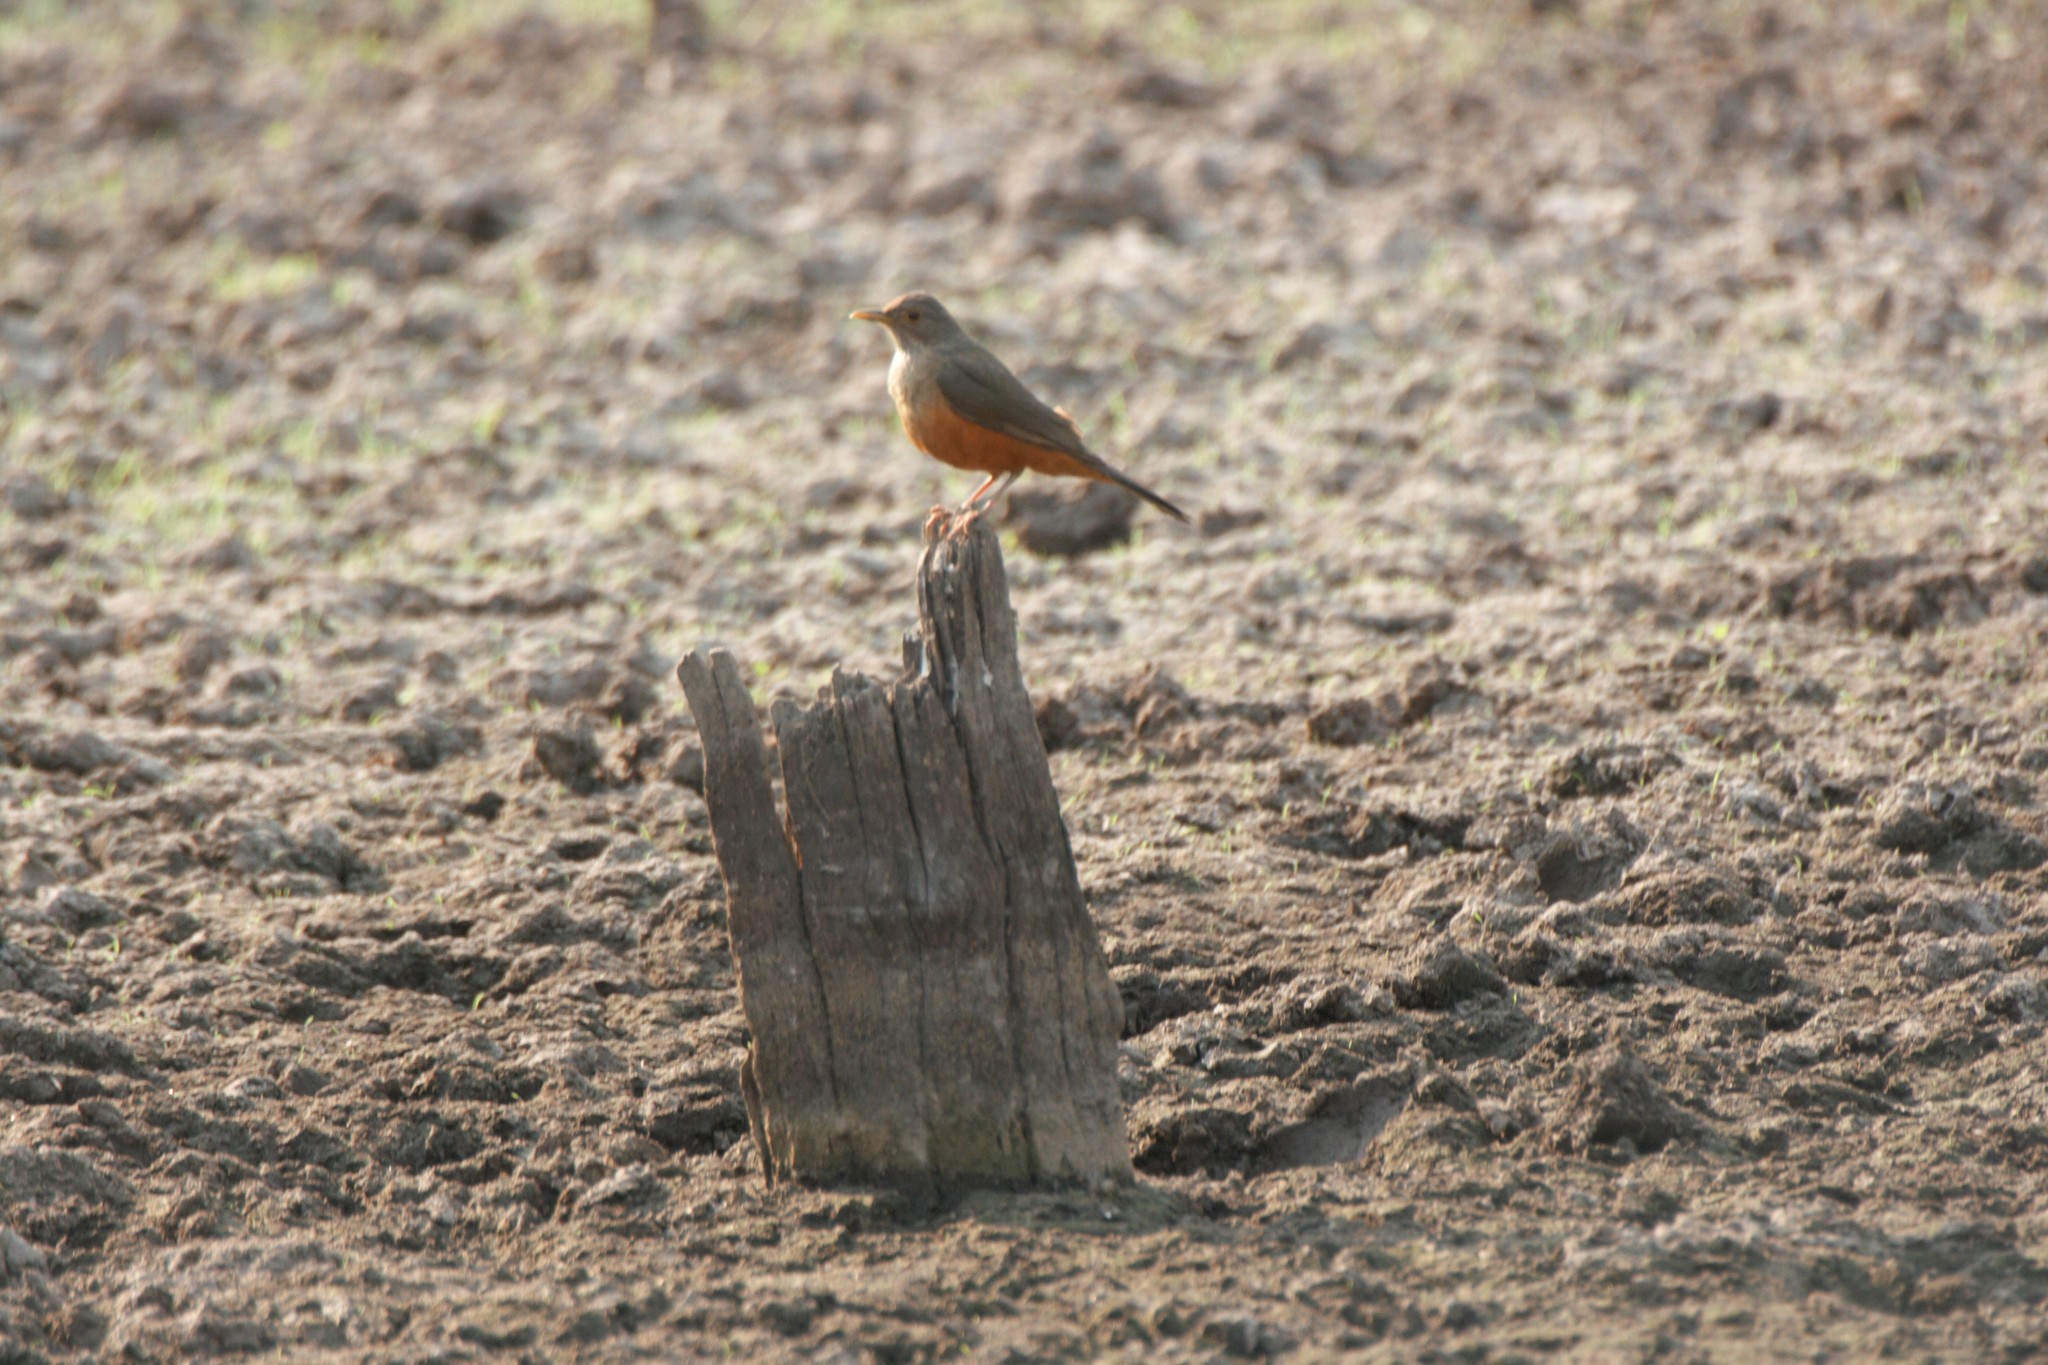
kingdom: Animalia
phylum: Chordata
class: Aves
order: Passeriformes
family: Turdidae
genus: Turdus
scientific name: Turdus rufiventris
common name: Rufous-bellied thrush
